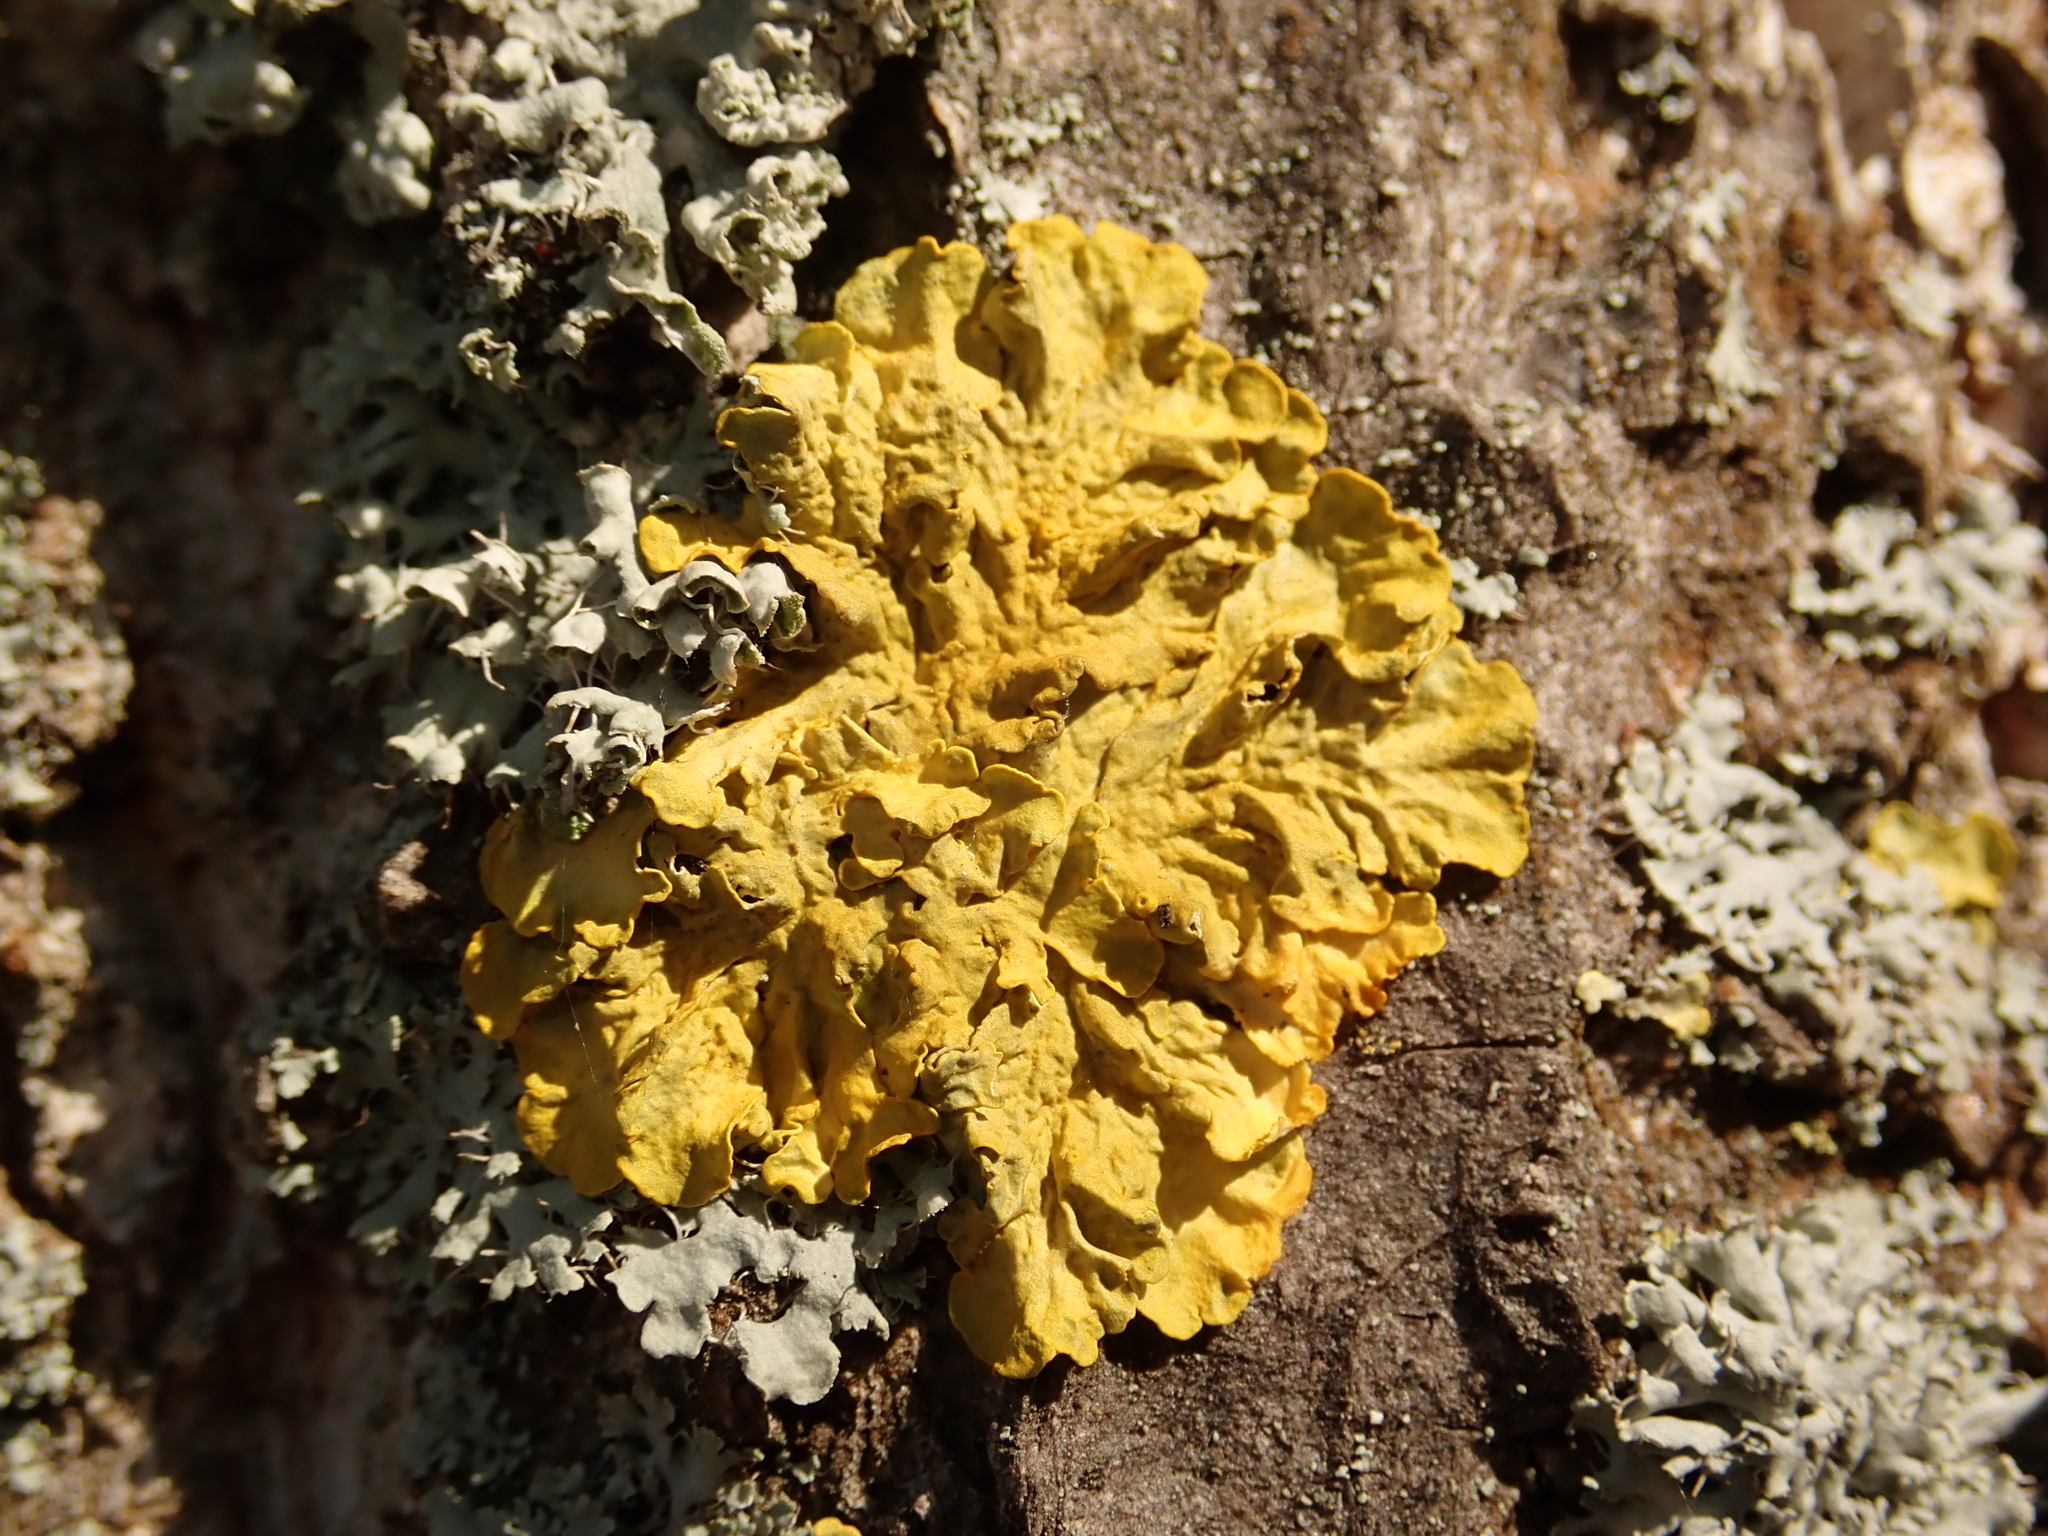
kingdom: Fungi
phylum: Ascomycota
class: Lecanoromycetes
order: Teloschistales
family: Teloschistaceae
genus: Xanthoria
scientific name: Xanthoria parietina
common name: Common orange lichen
